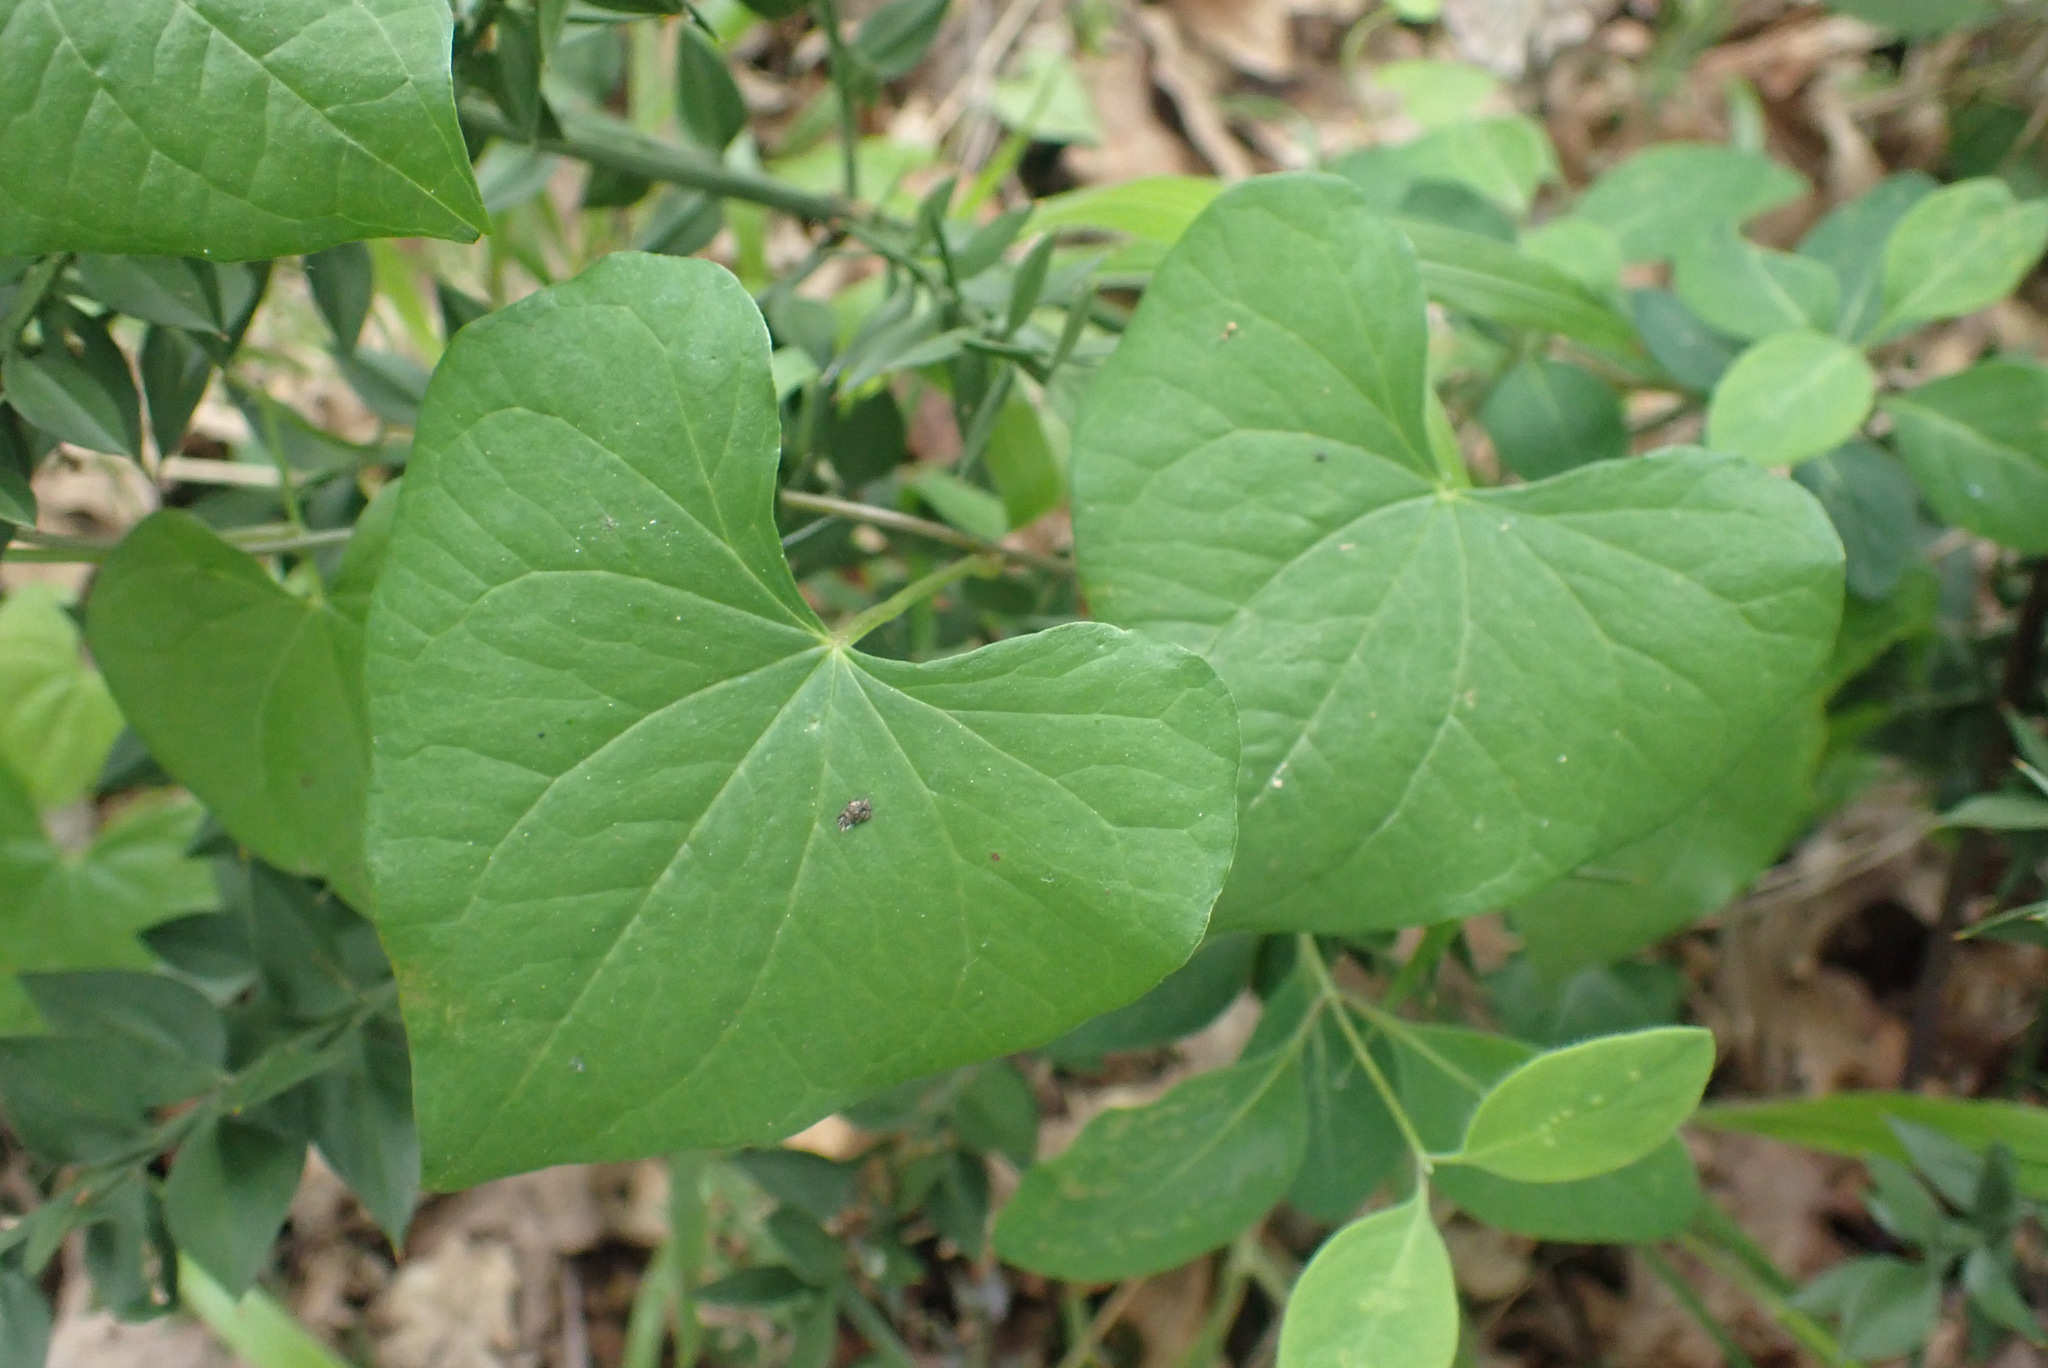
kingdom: Plantae
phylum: Tracheophyta
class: Liliopsida
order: Dioscoreales
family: Dioscoreaceae
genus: Dioscorea
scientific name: Dioscorea communis
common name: Black-bindweed
